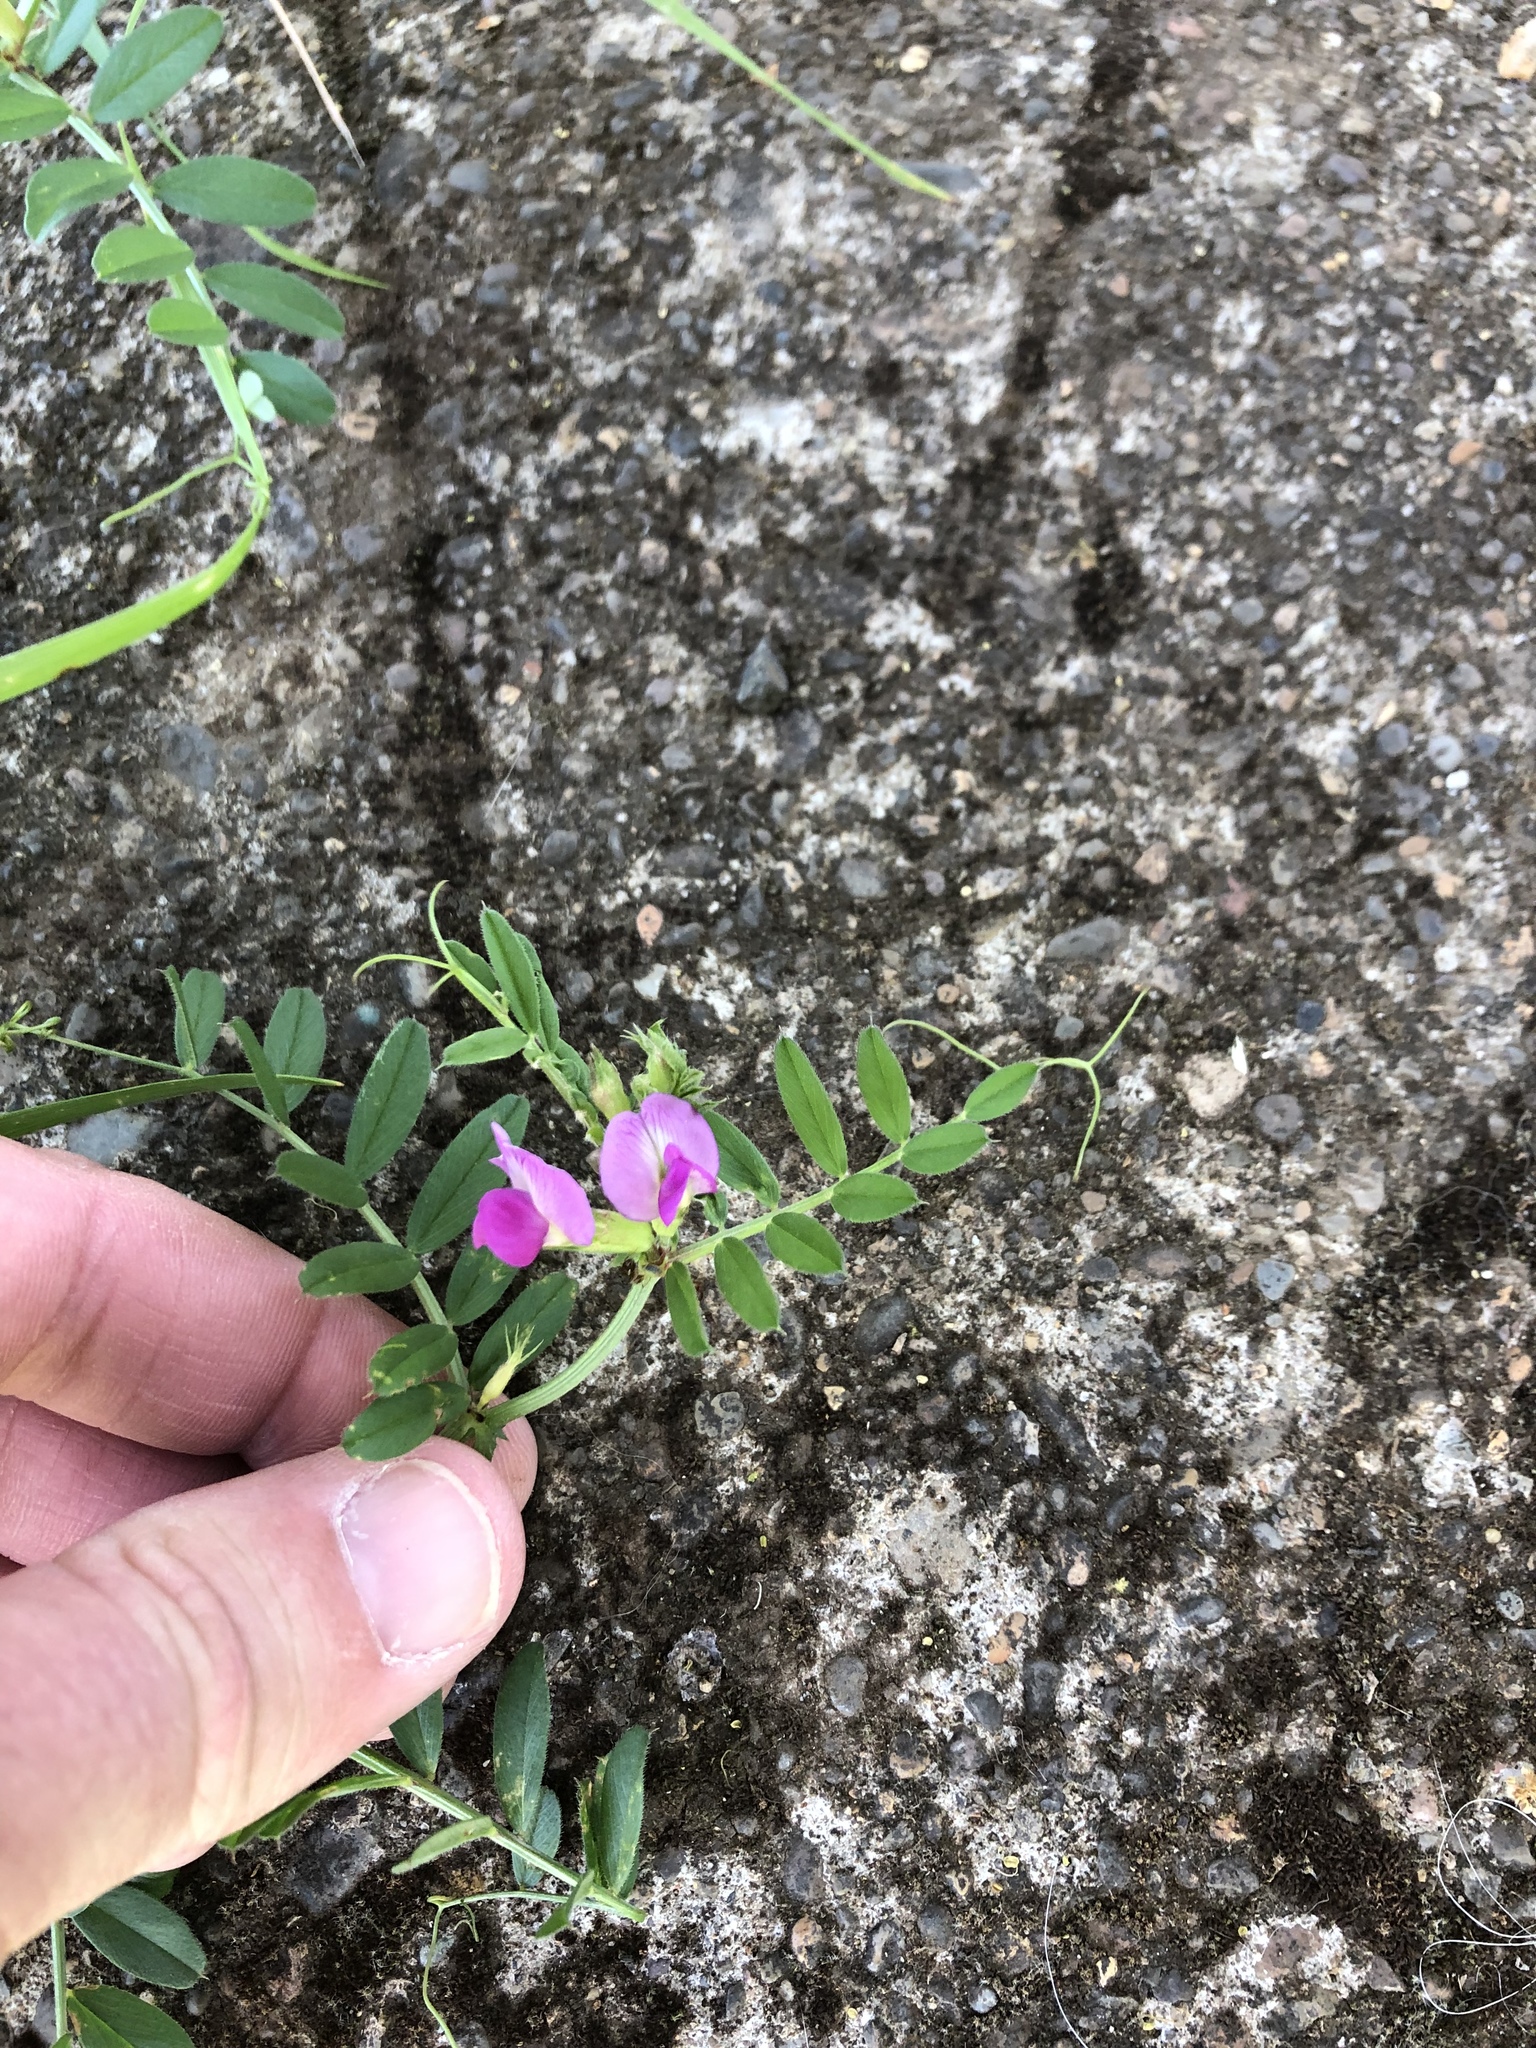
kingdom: Plantae
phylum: Tracheophyta
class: Magnoliopsida
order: Fabales
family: Fabaceae
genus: Vicia
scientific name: Vicia sativa
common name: Garden vetch
